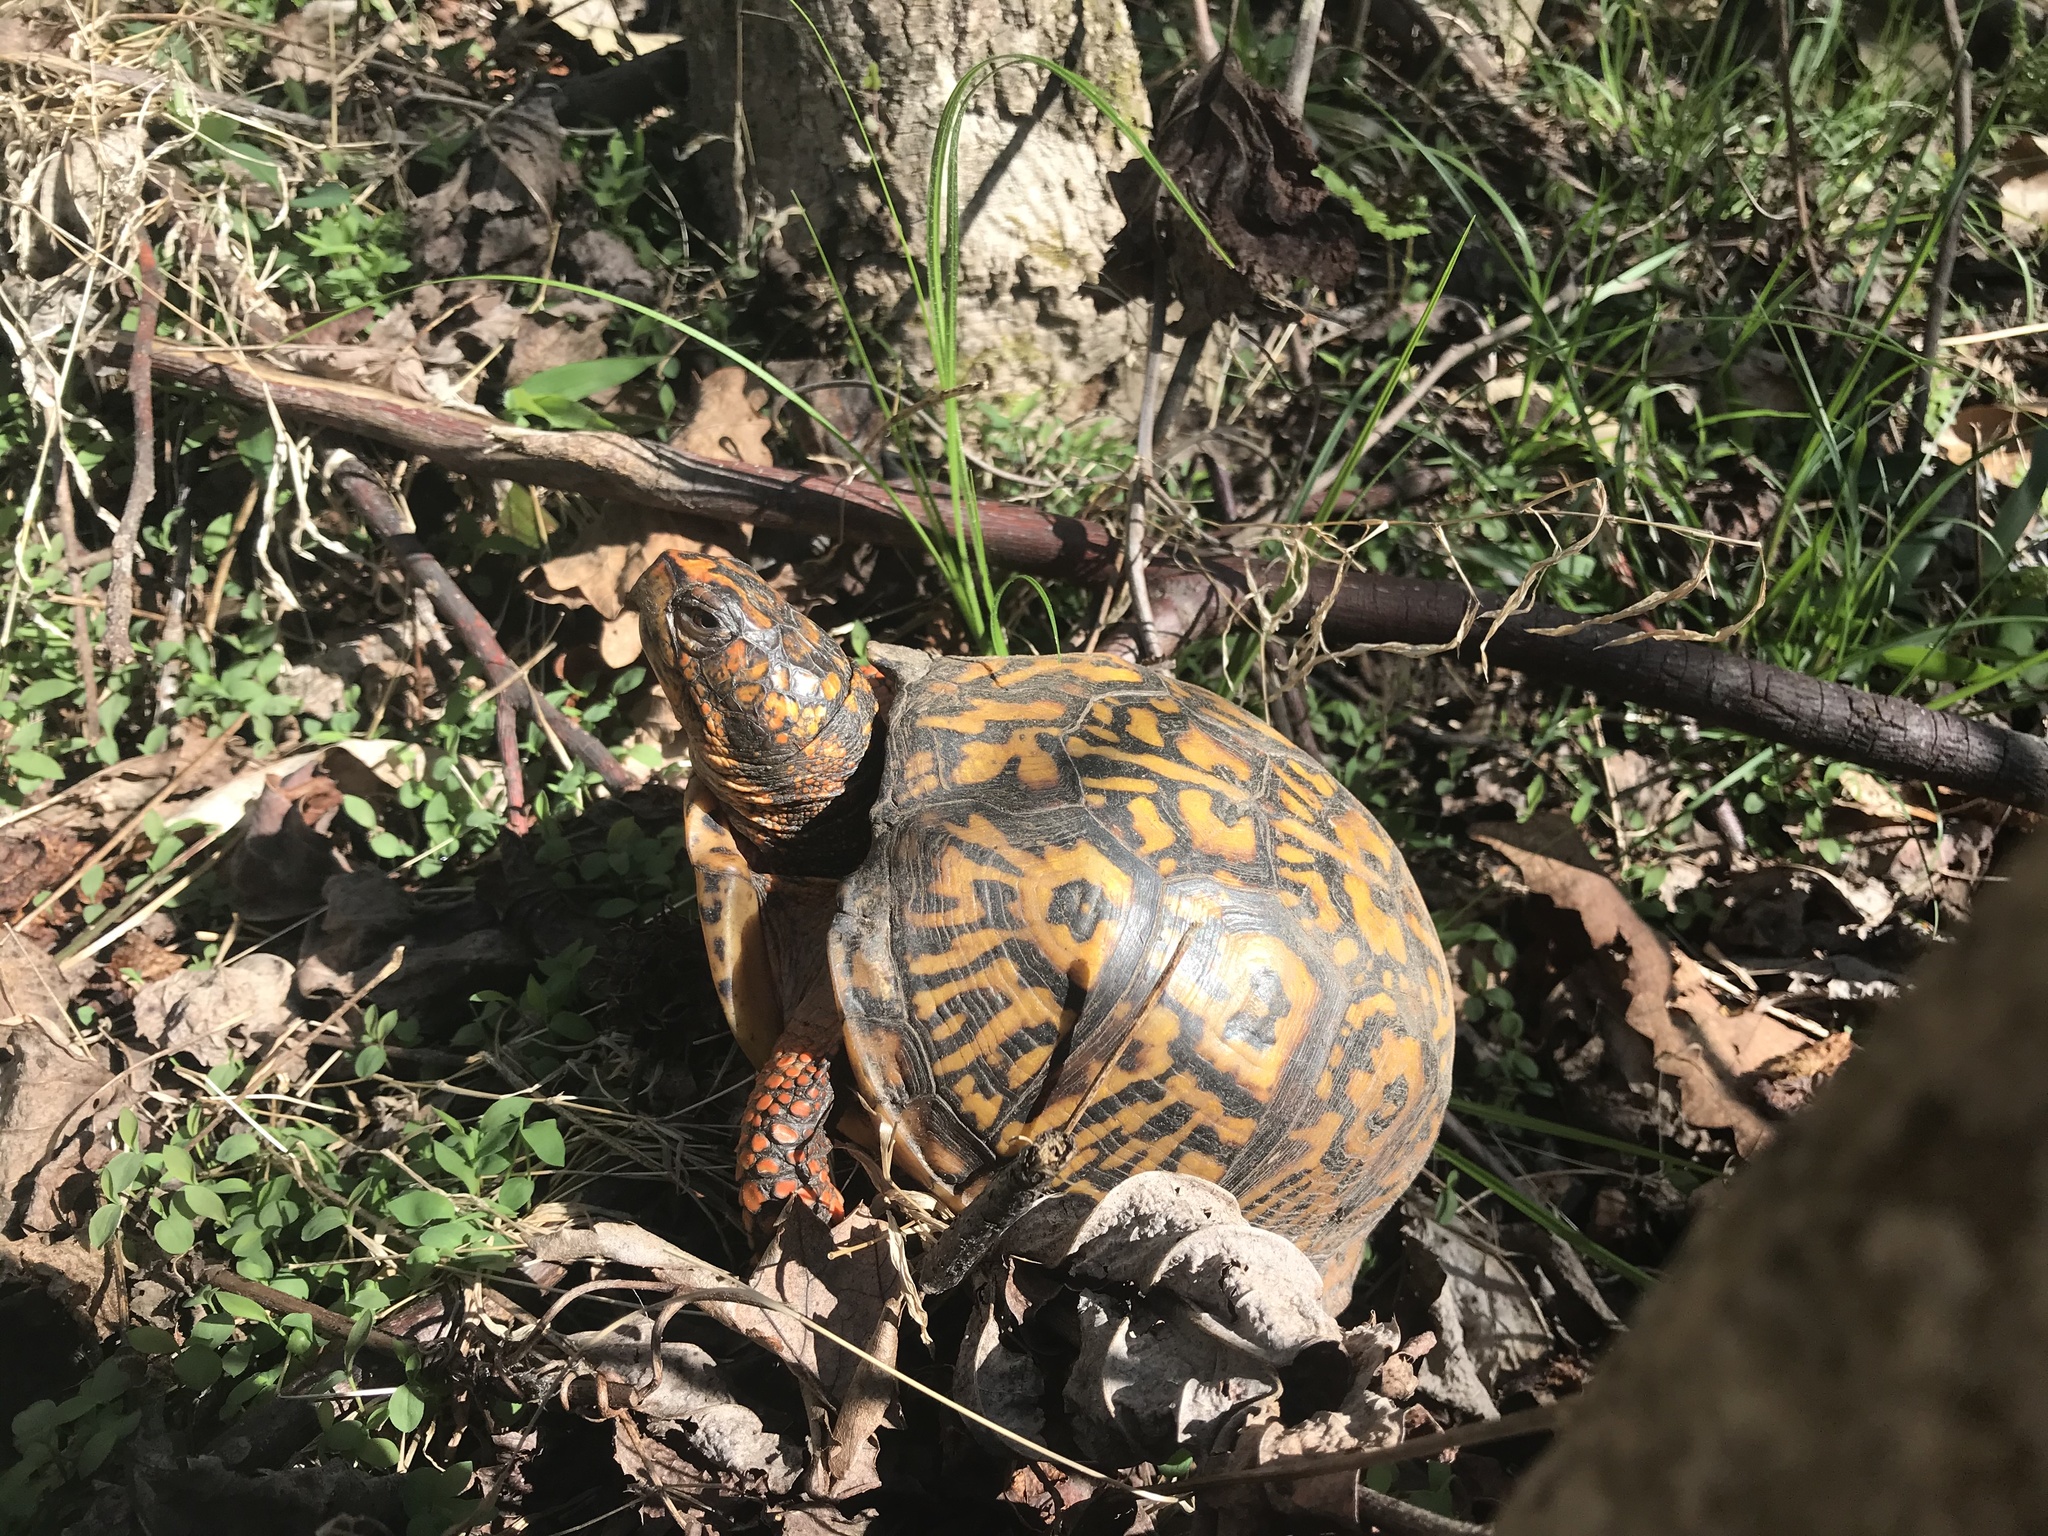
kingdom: Animalia
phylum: Chordata
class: Testudines
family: Emydidae
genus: Terrapene
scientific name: Terrapene carolina
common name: Common box turtle
